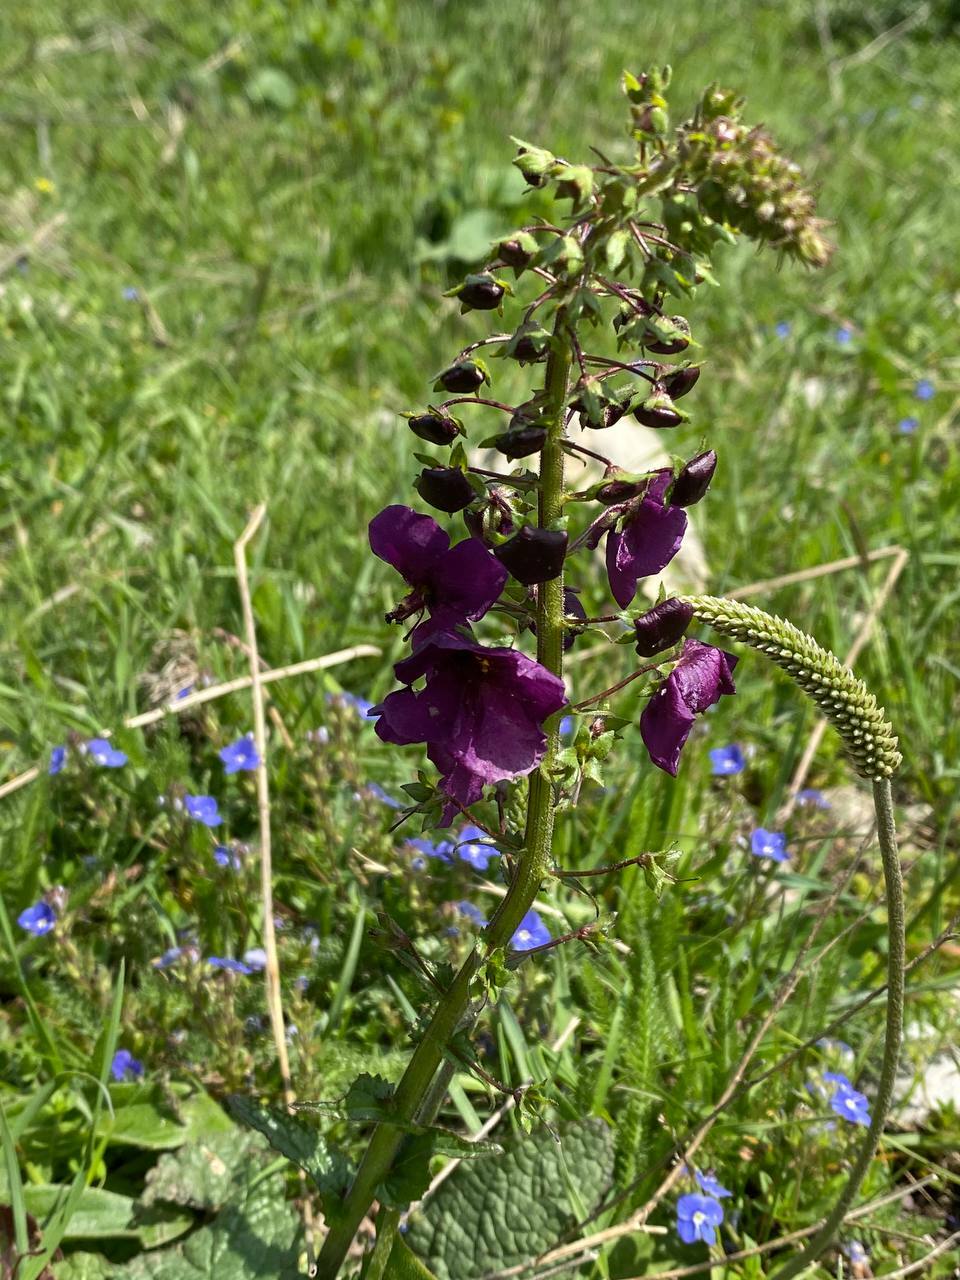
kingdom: Plantae
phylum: Tracheophyta
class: Magnoliopsida
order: Lamiales
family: Scrophulariaceae
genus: Verbascum
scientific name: Verbascum phoeniceum
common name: Purple mullein
